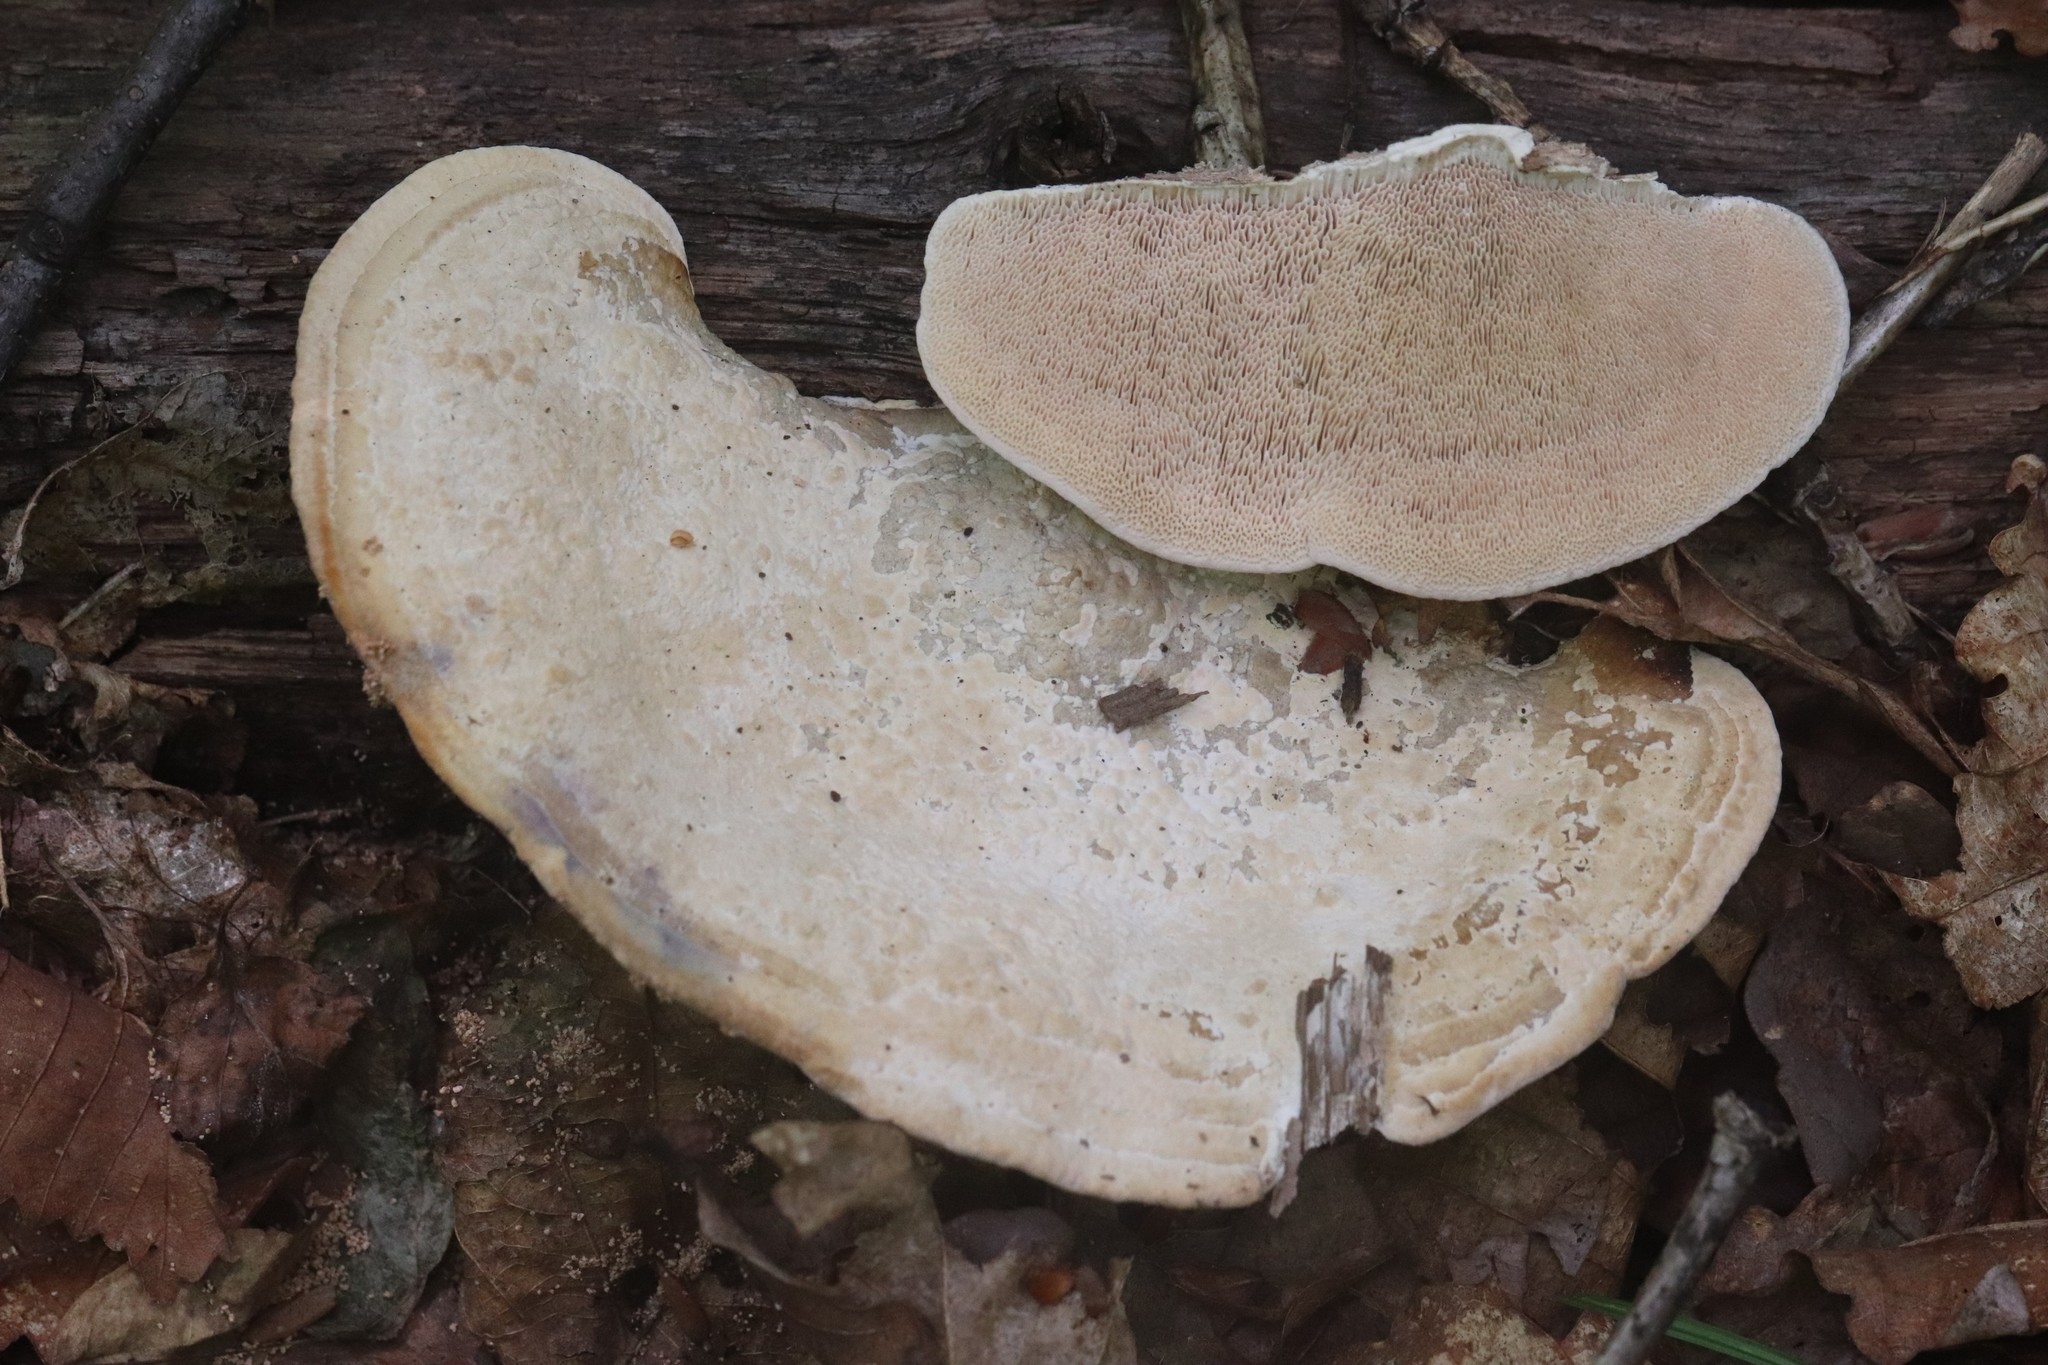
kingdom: Fungi
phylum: Basidiomycota
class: Agaricomycetes
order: Polyporales
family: Fomitopsidaceae
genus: Fomitopsis
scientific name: Fomitopsis
